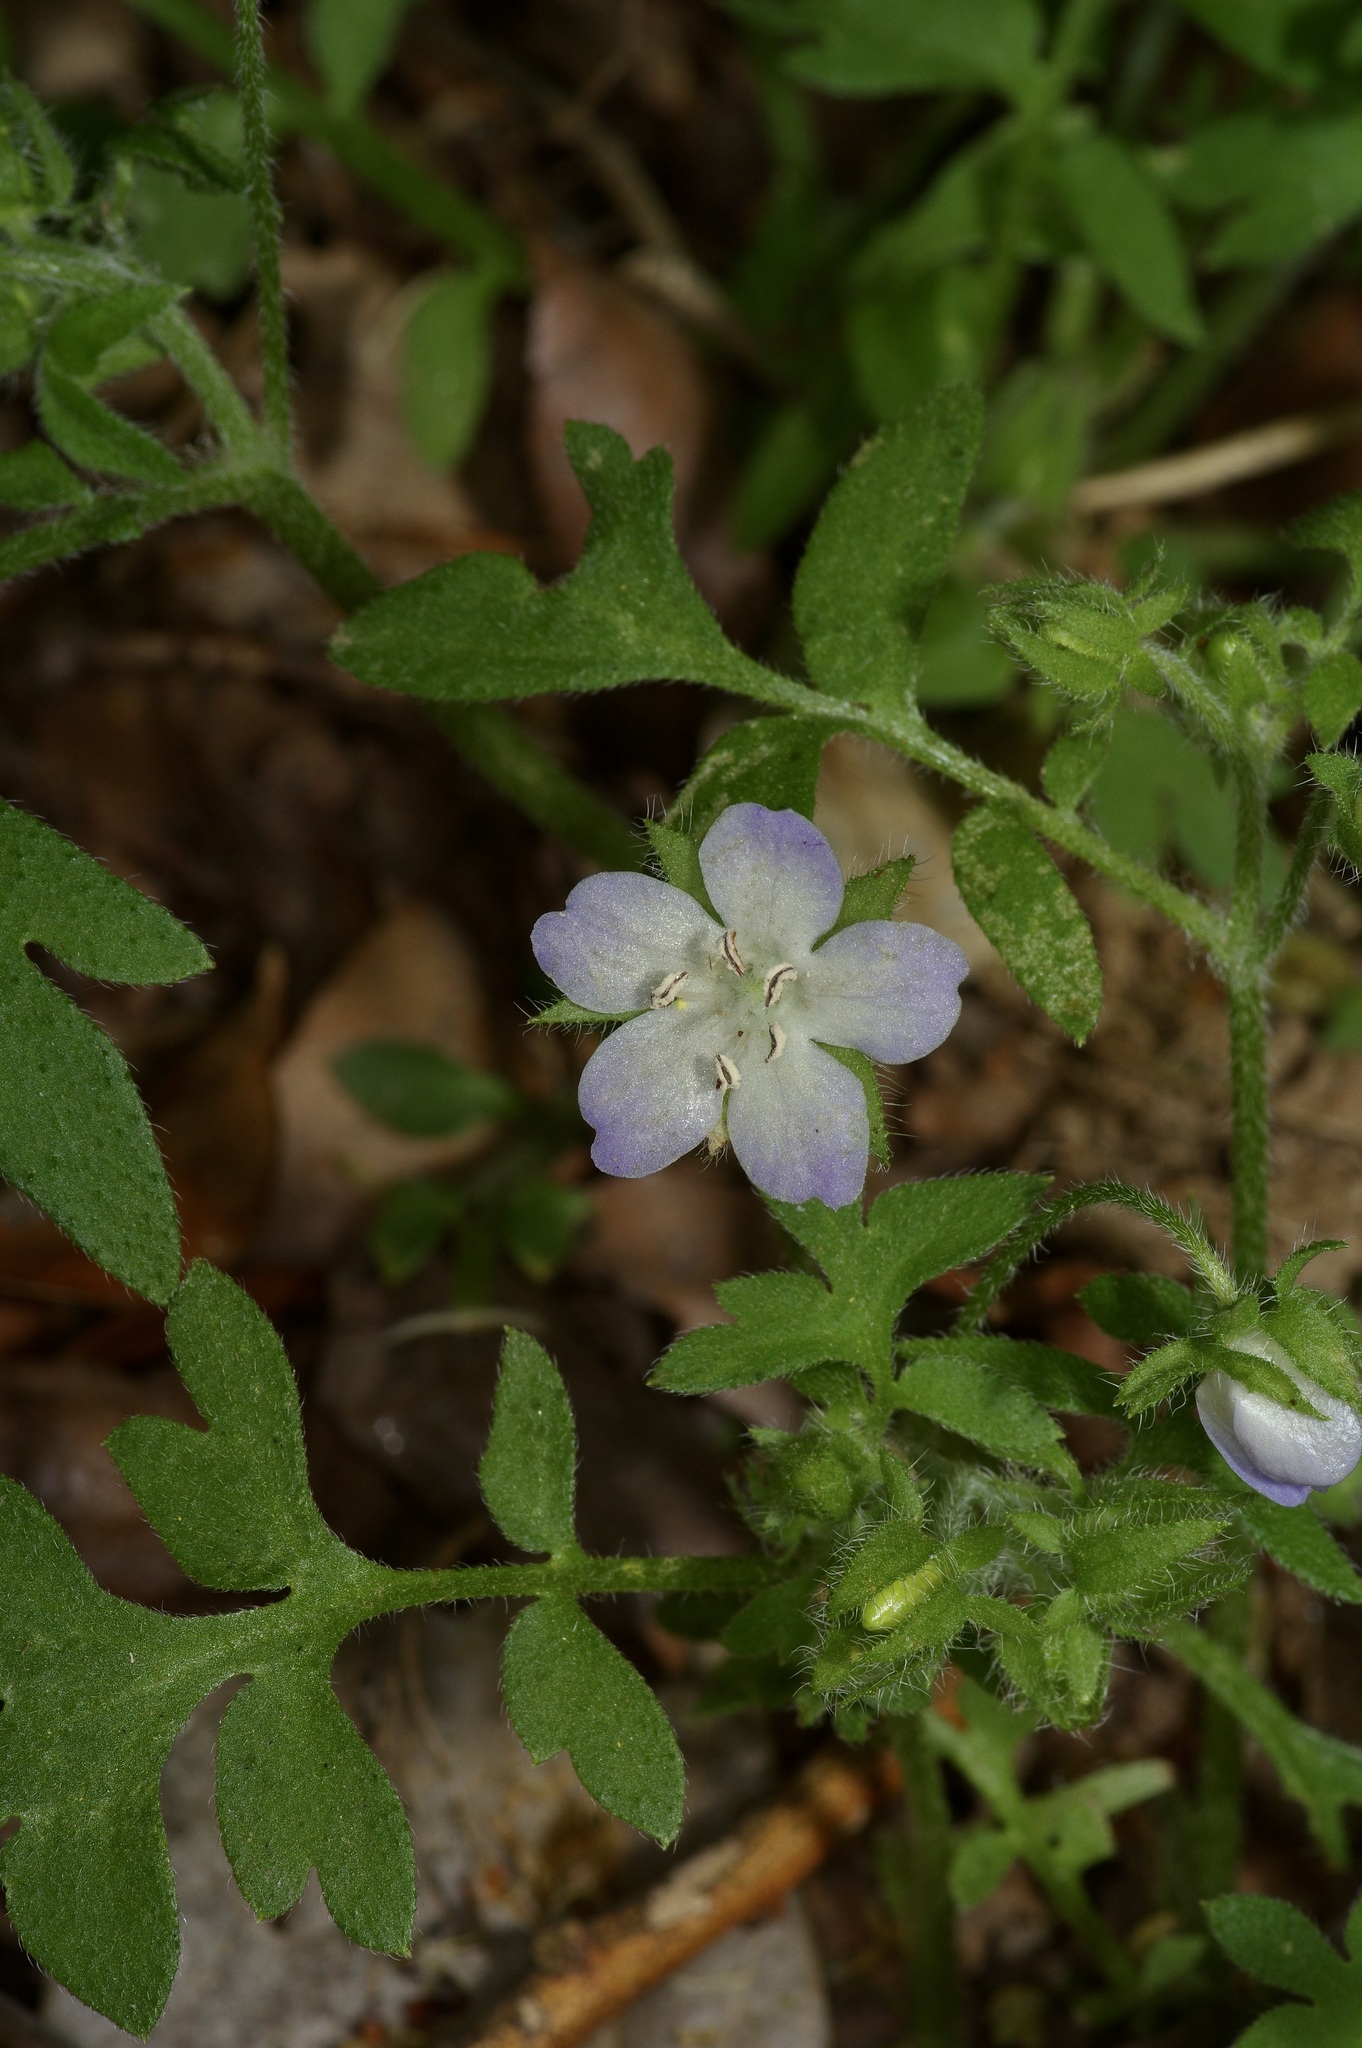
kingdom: Plantae
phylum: Tracheophyta
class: Magnoliopsida
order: Boraginales
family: Hydrophyllaceae
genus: Nemophila
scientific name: Nemophila phacelioides
